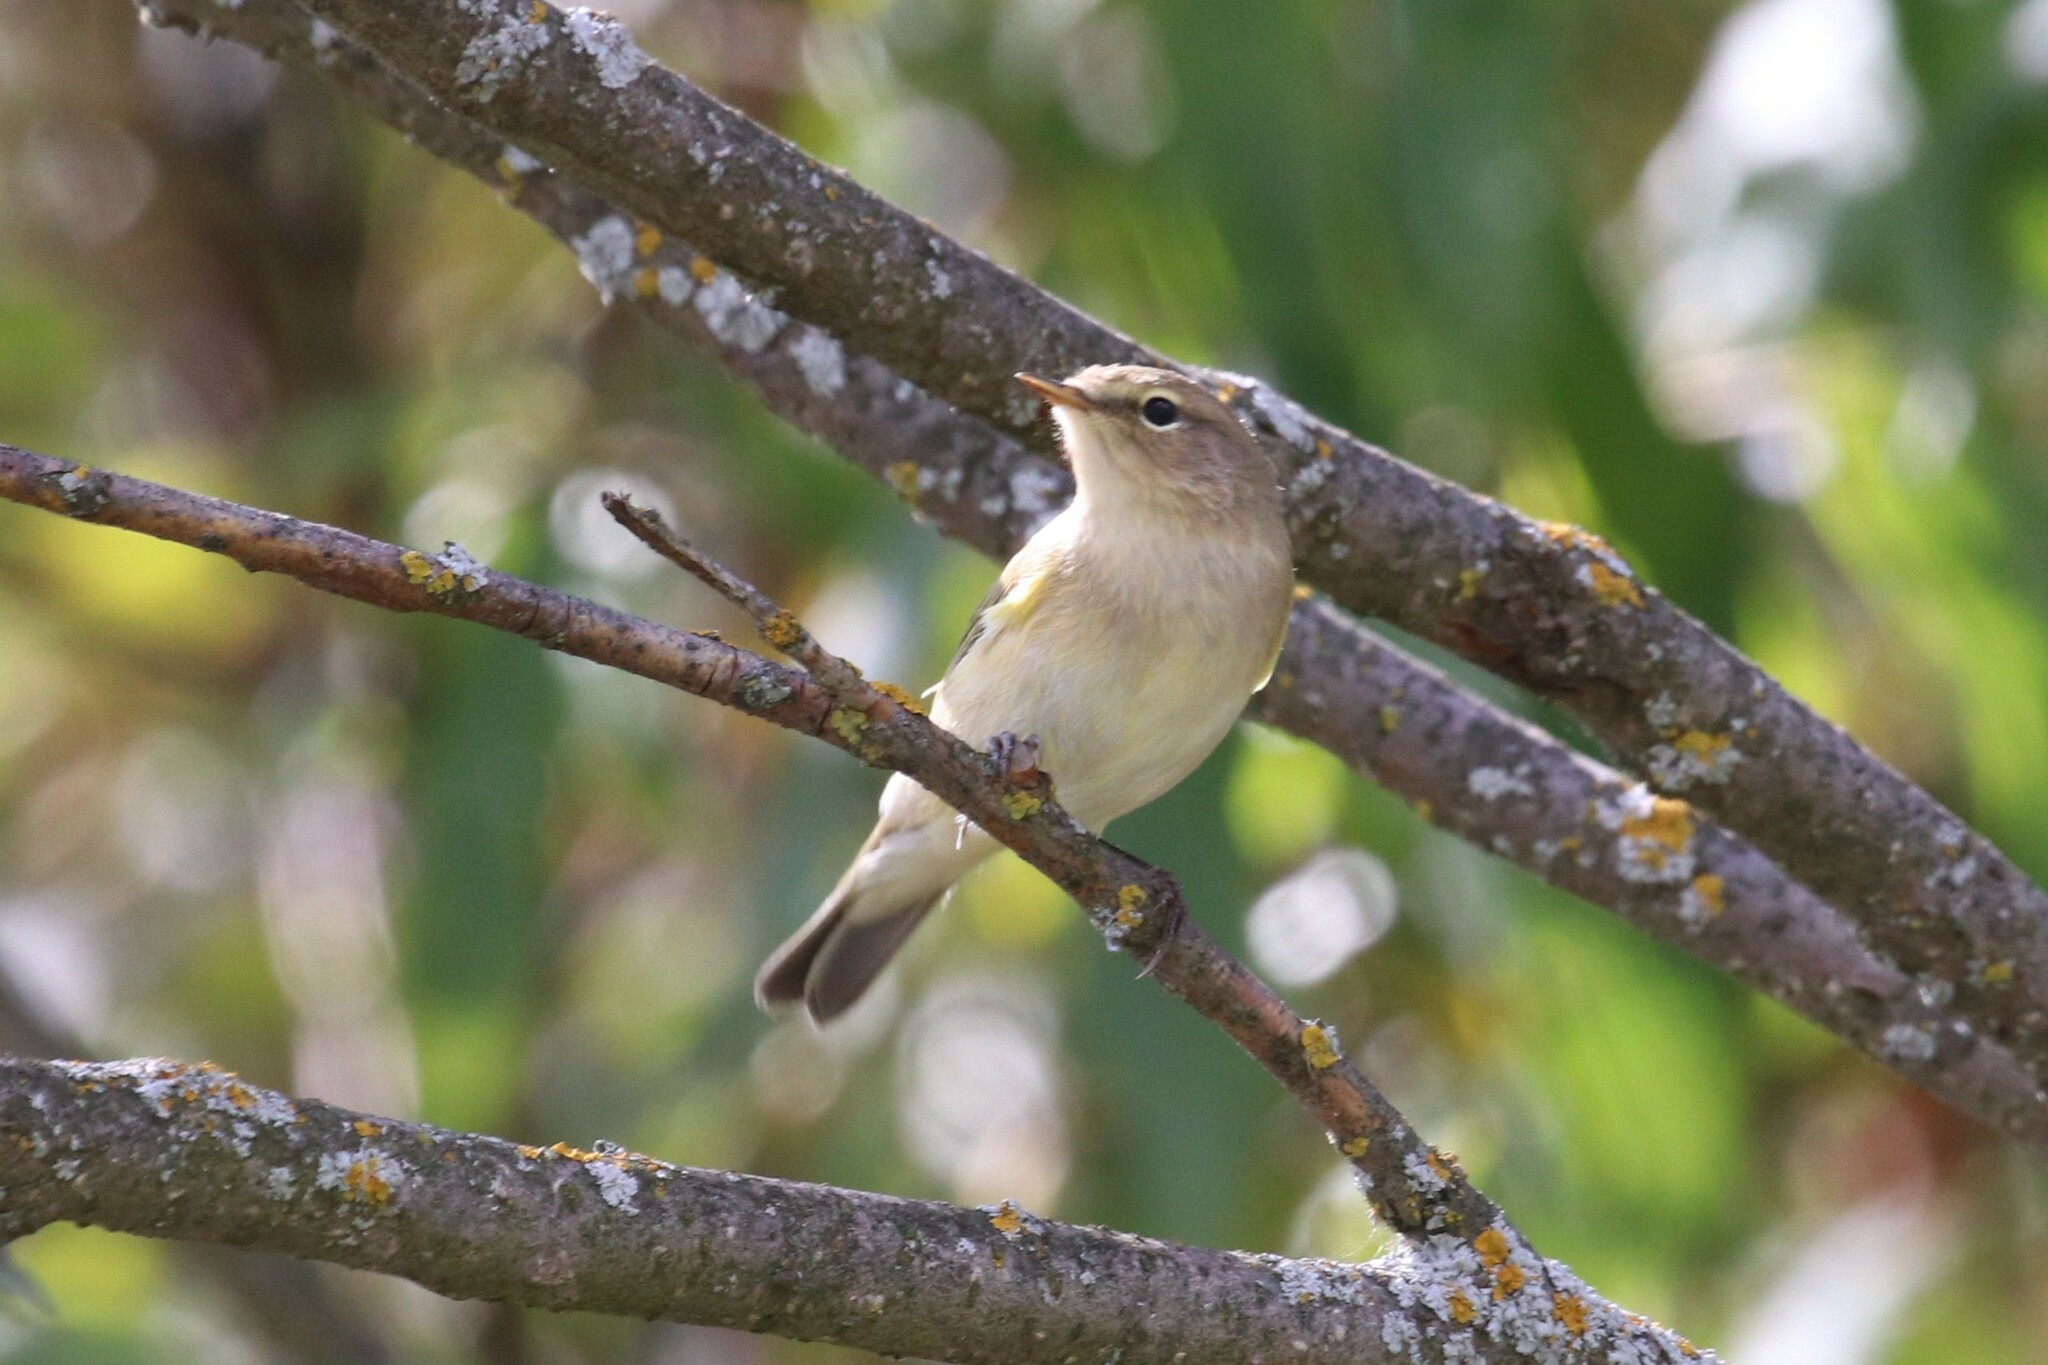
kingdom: Animalia
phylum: Chordata
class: Aves
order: Passeriformes
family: Phylloscopidae
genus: Phylloscopus
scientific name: Phylloscopus collybita
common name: Common chiffchaff
